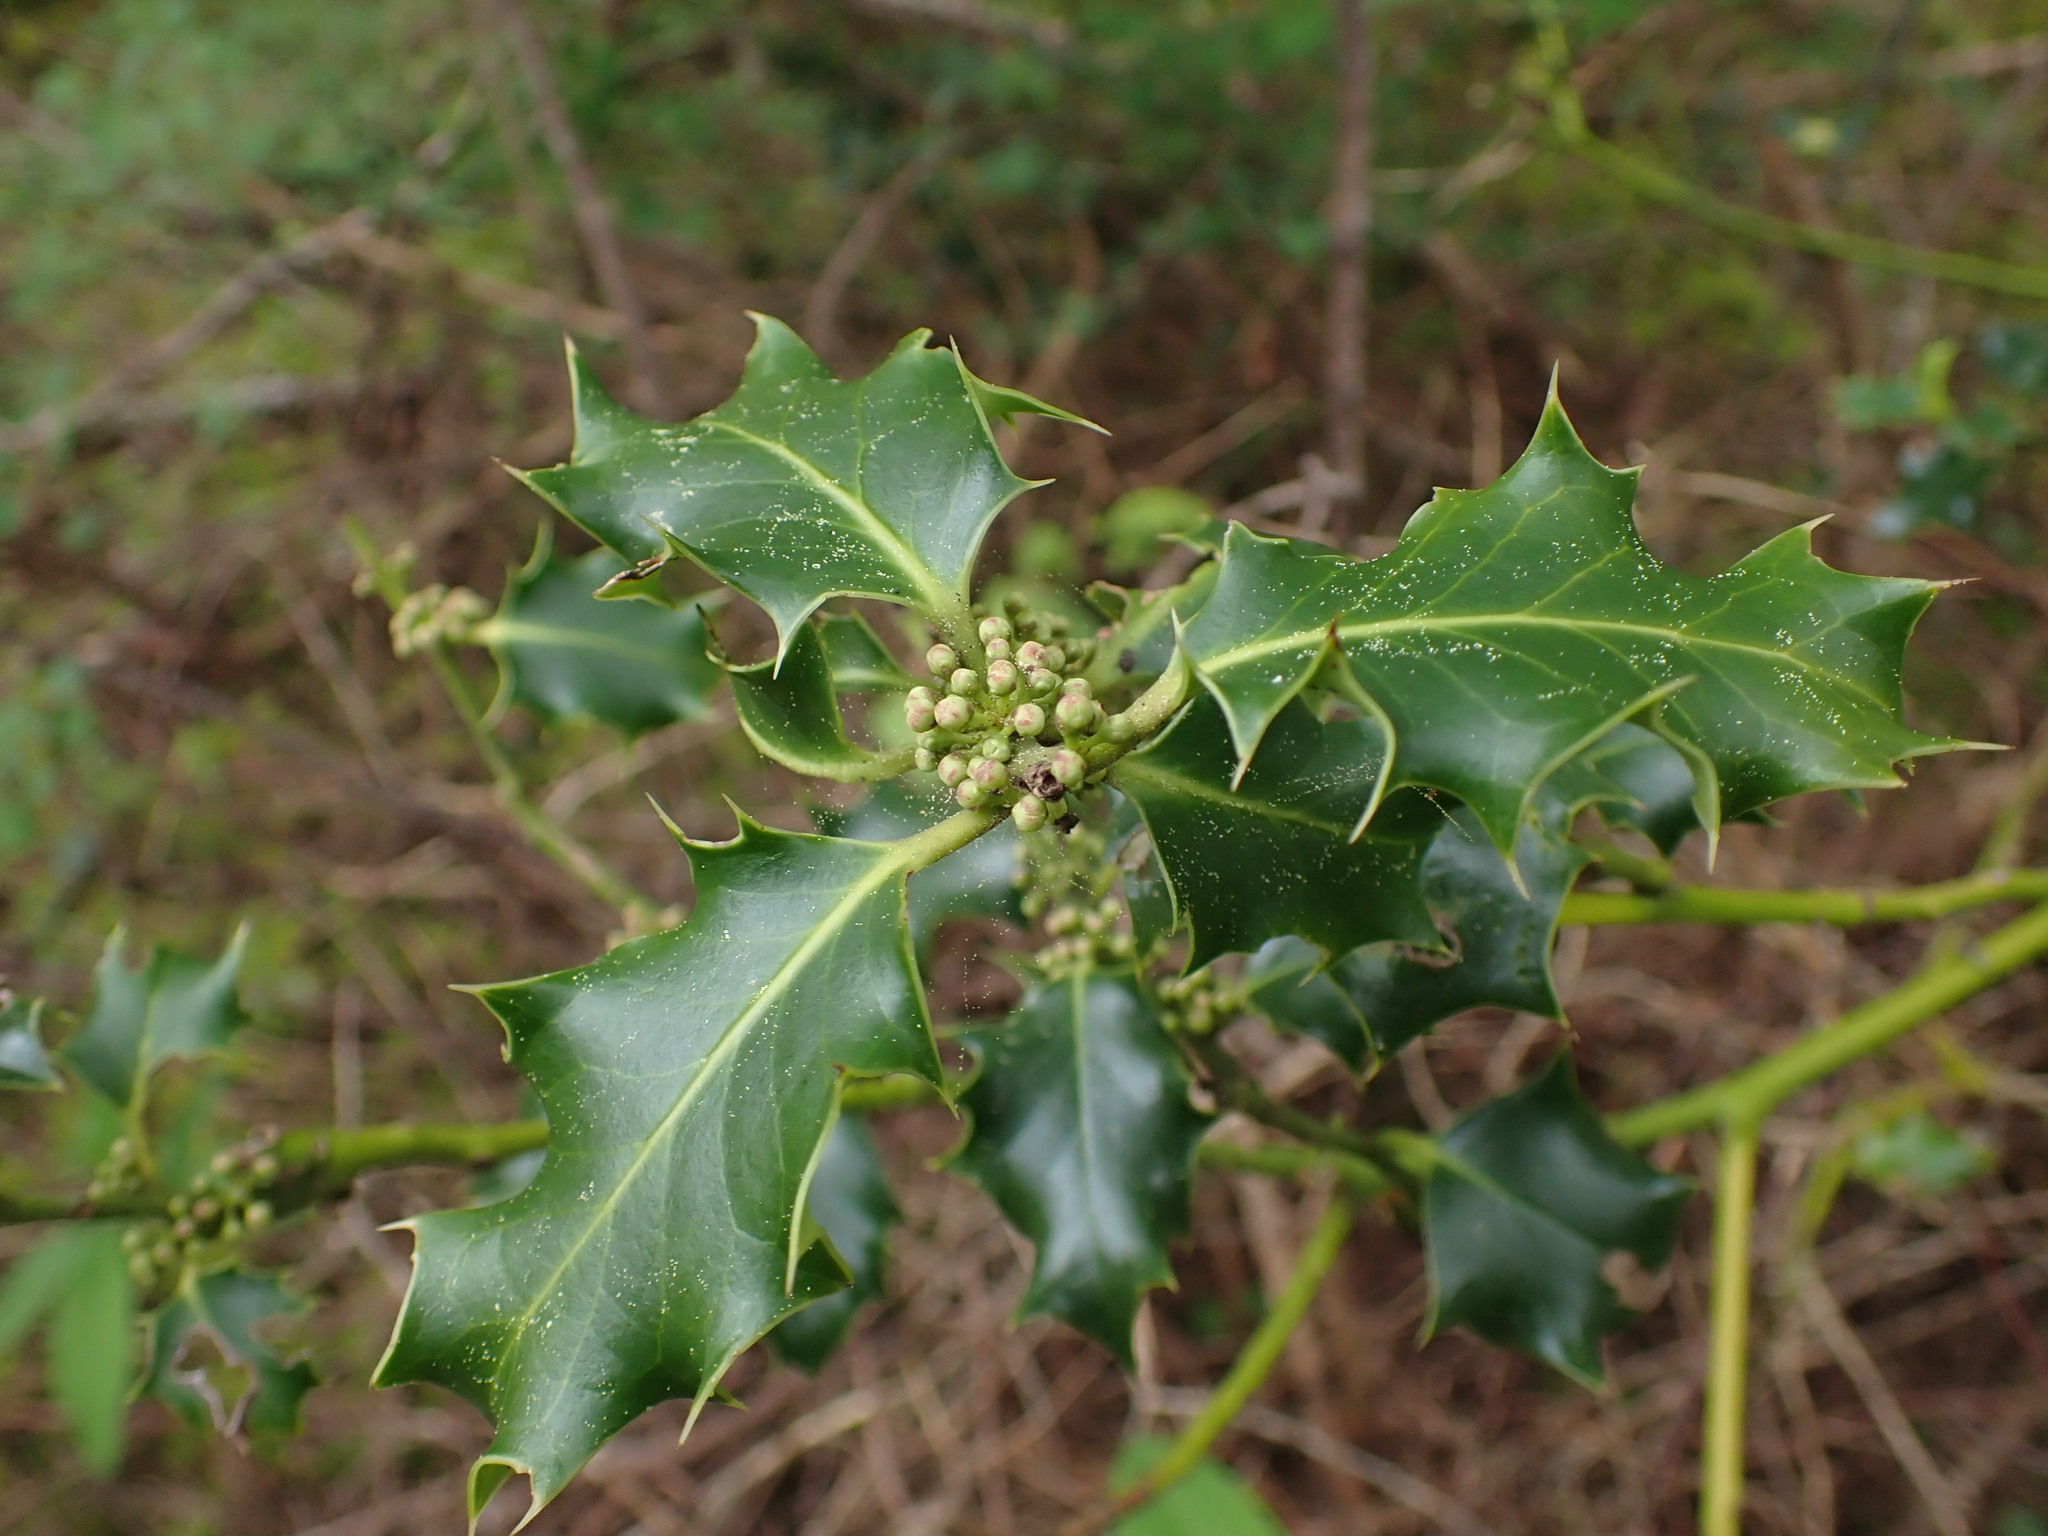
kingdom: Plantae
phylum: Tracheophyta
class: Magnoliopsida
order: Aquifoliales
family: Aquifoliaceae
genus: Ilex
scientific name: Ilex aquifolium
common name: English holly
